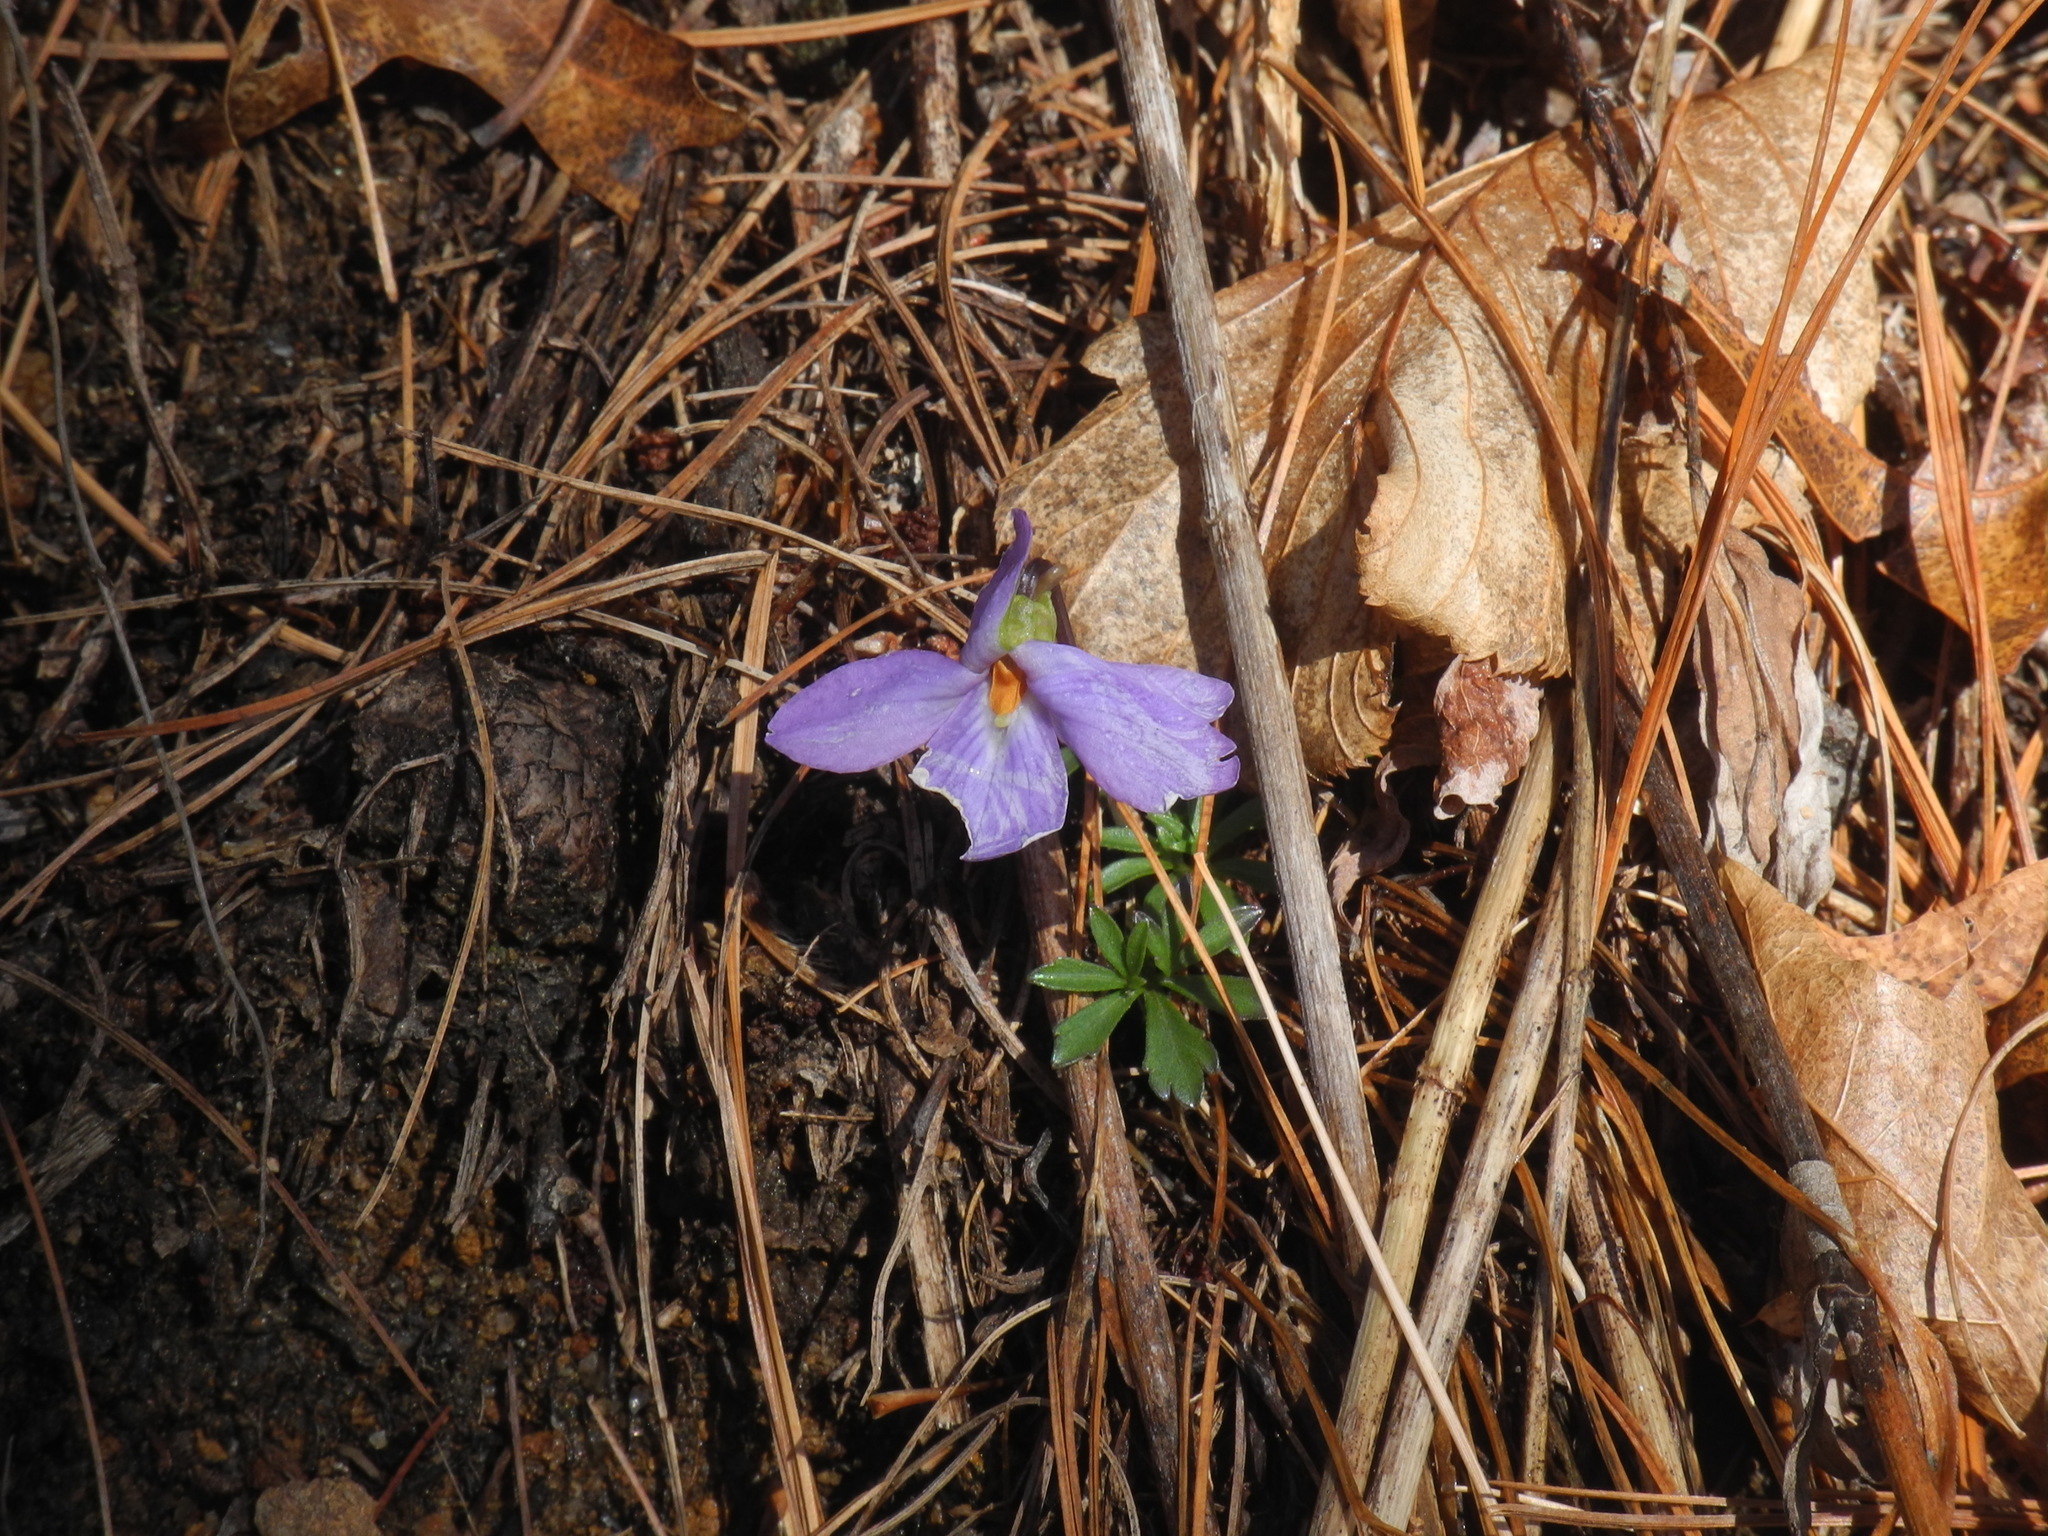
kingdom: Plantae
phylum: Tracheophyta
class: Magnoliopsida
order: Malpighiales
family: Violaceae
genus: Viola
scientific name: Viola pedata
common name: Pansy violet
